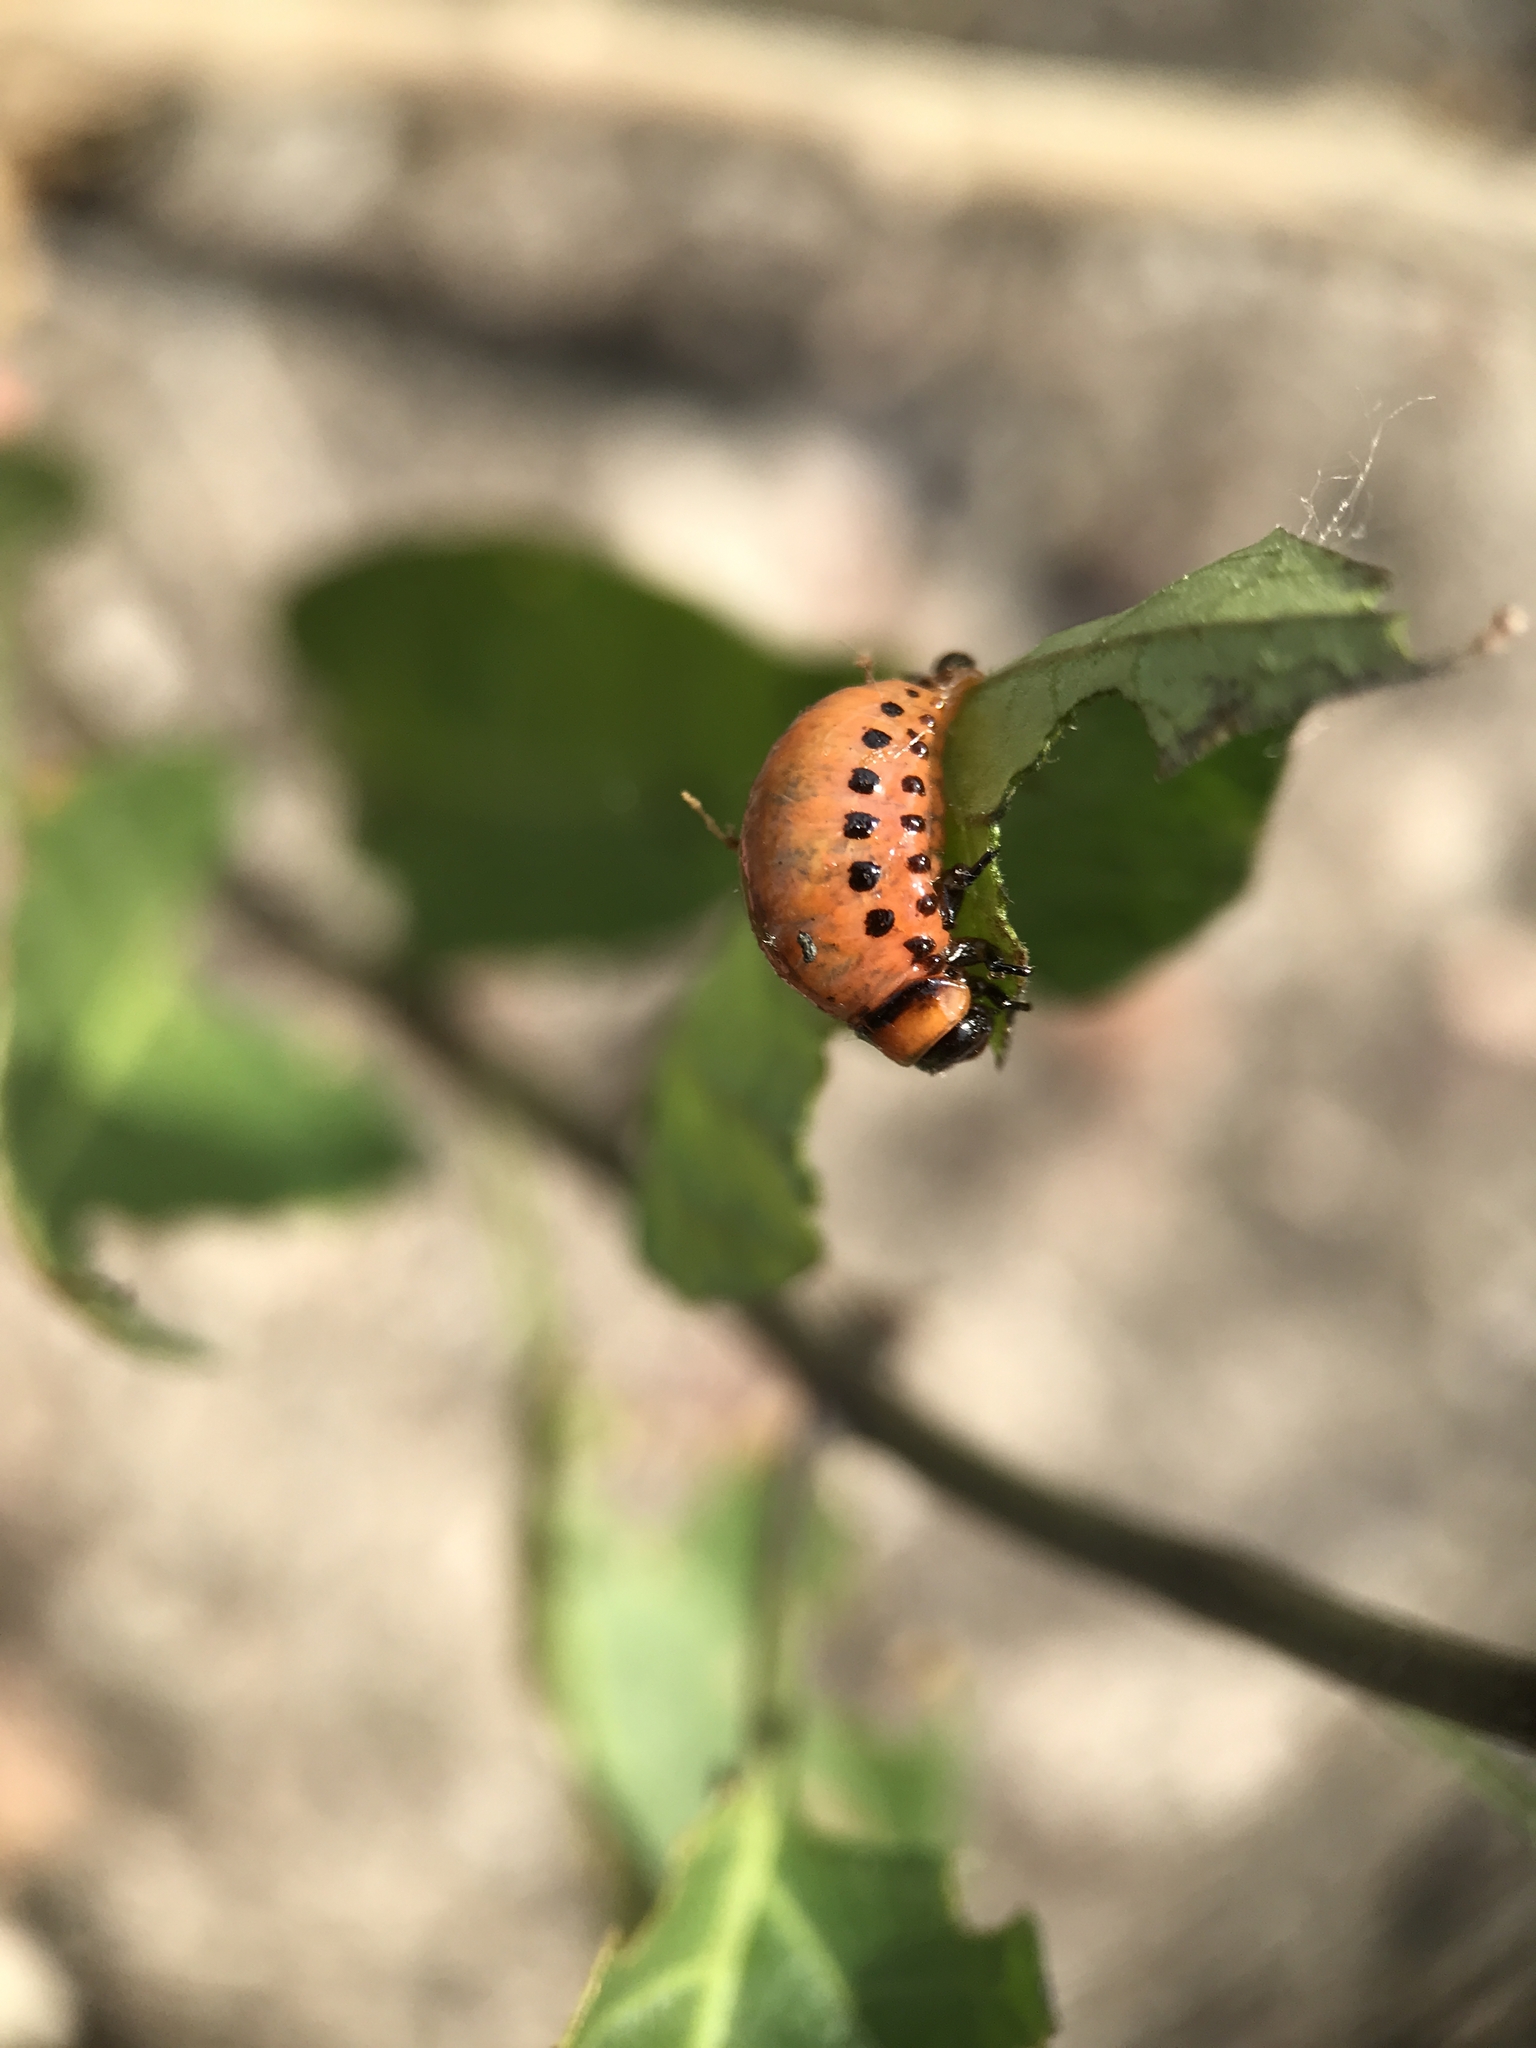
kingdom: Animalia
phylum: Arthropoda
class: Insecta
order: Coleoptera
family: Chrysomelidae
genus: Leptinotarsa
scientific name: Leptinotarsa decemlineata
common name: Colorado potato beetle
